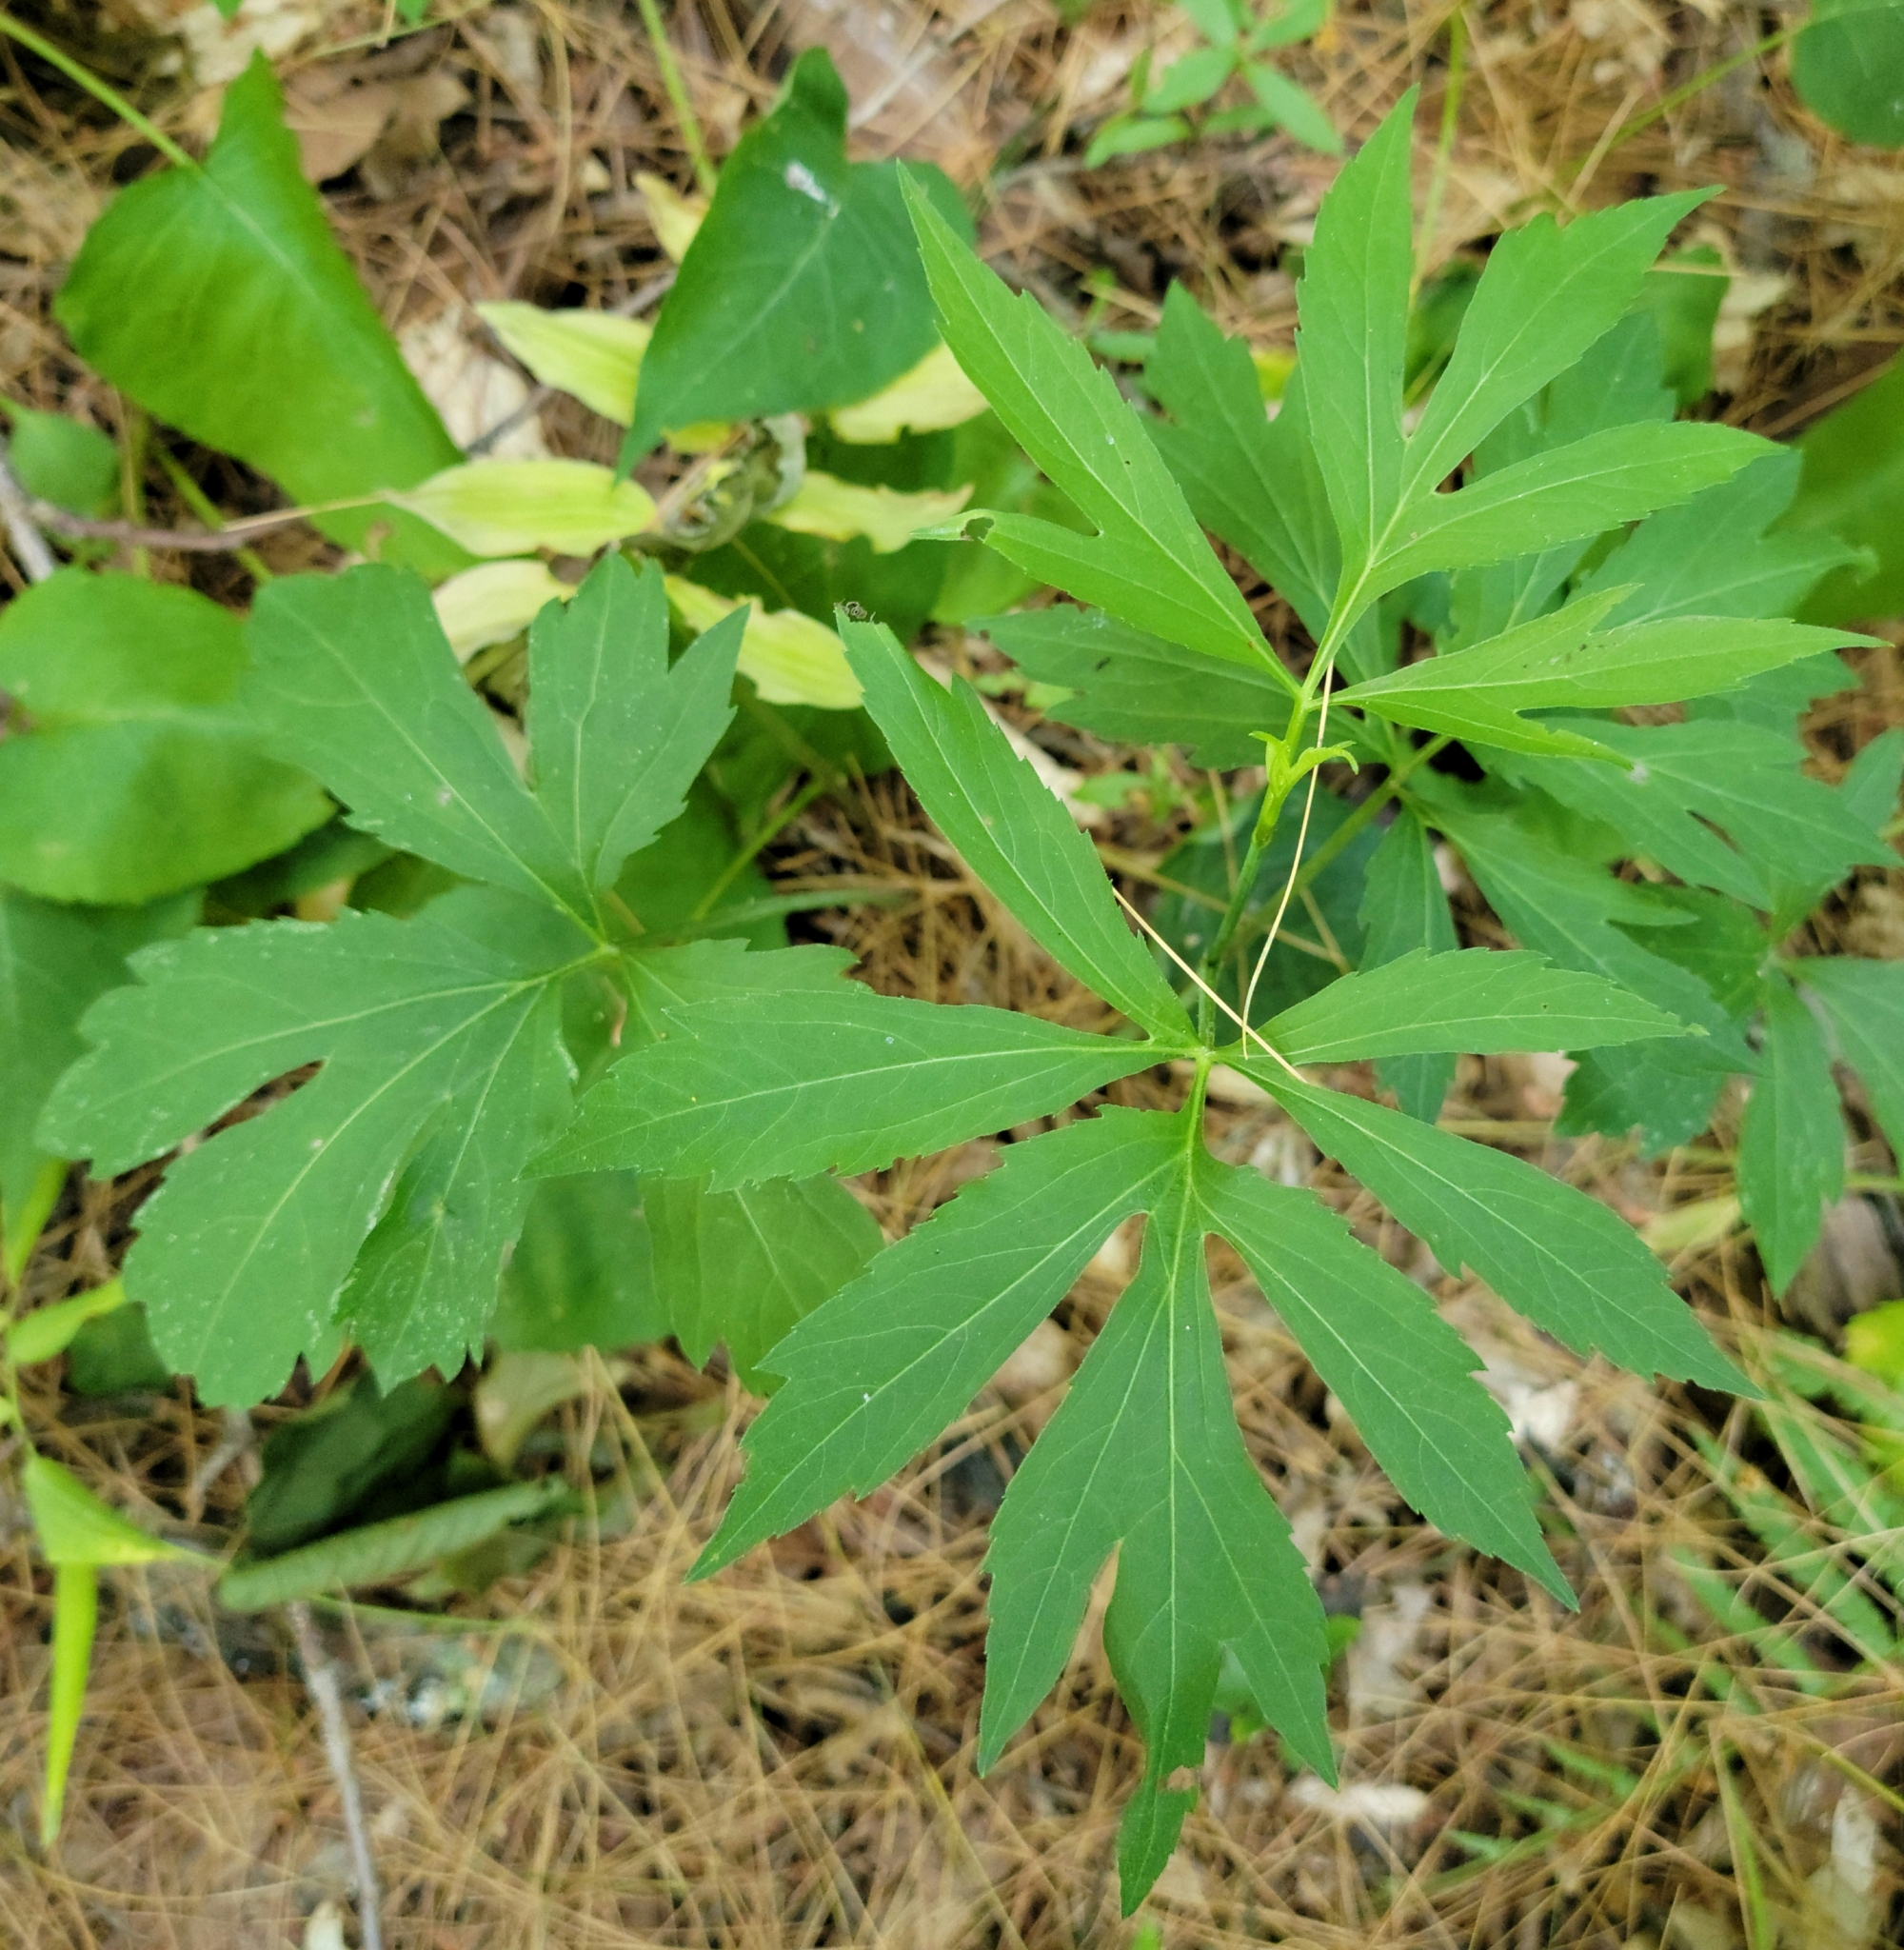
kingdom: Plantae
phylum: Tracheophyta
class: Magnoliopsida
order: Asterales
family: Asteraceae
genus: Rudbeckia
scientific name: Rudbeckia laciniata
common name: Coneflower
